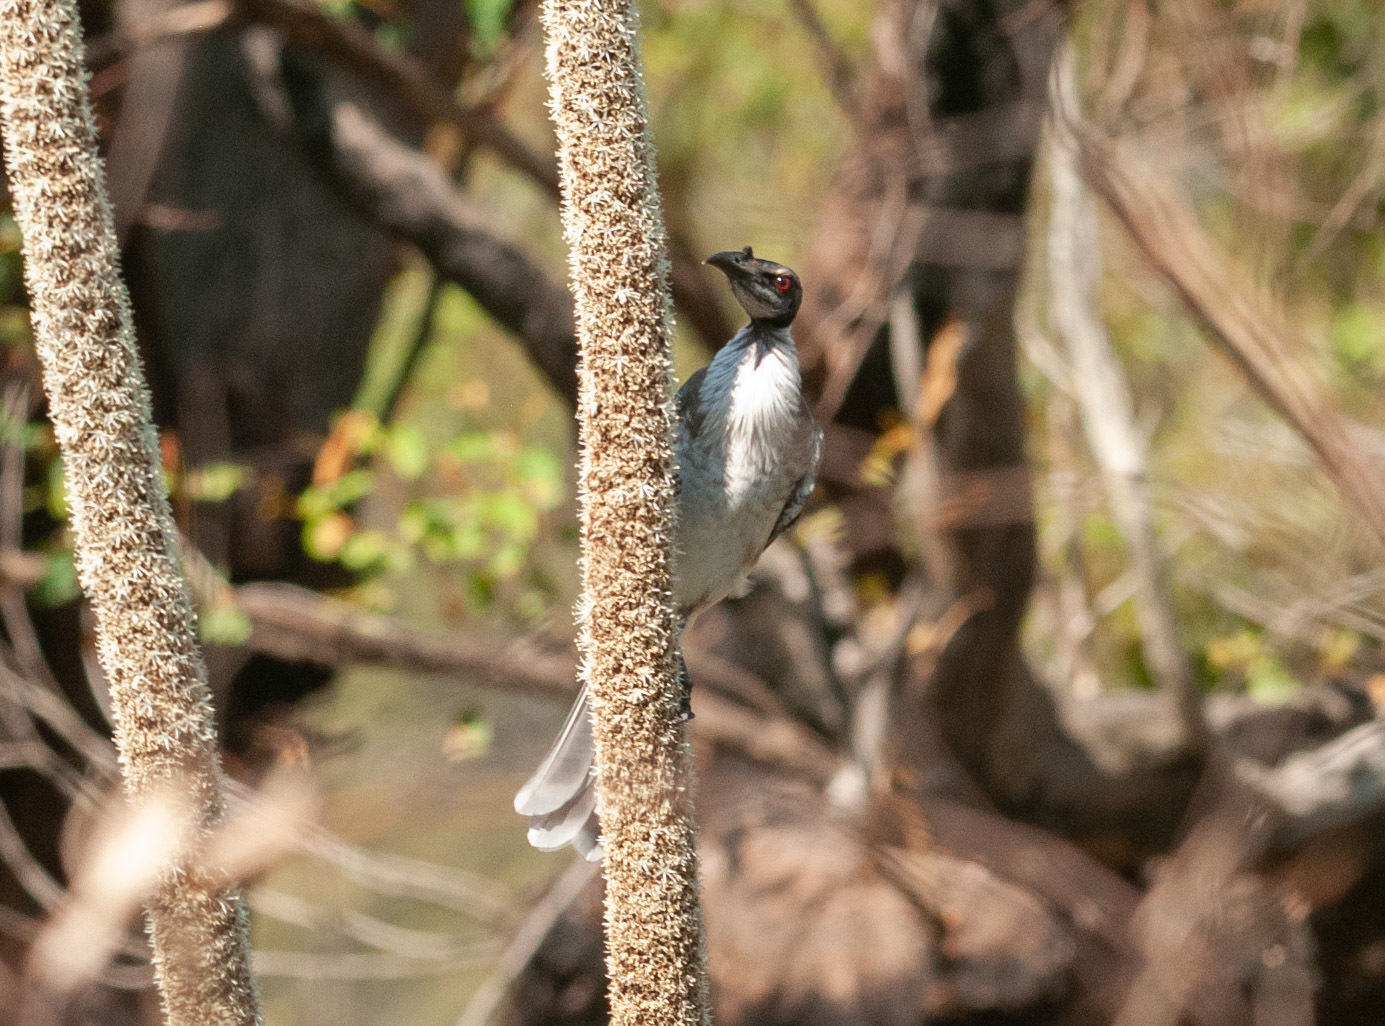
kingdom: Animalia
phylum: Chordata
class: Aves
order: Passeriformes
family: Meliphagidae
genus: Philemon
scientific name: Philemon corniculatus
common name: Noisy friarbird
